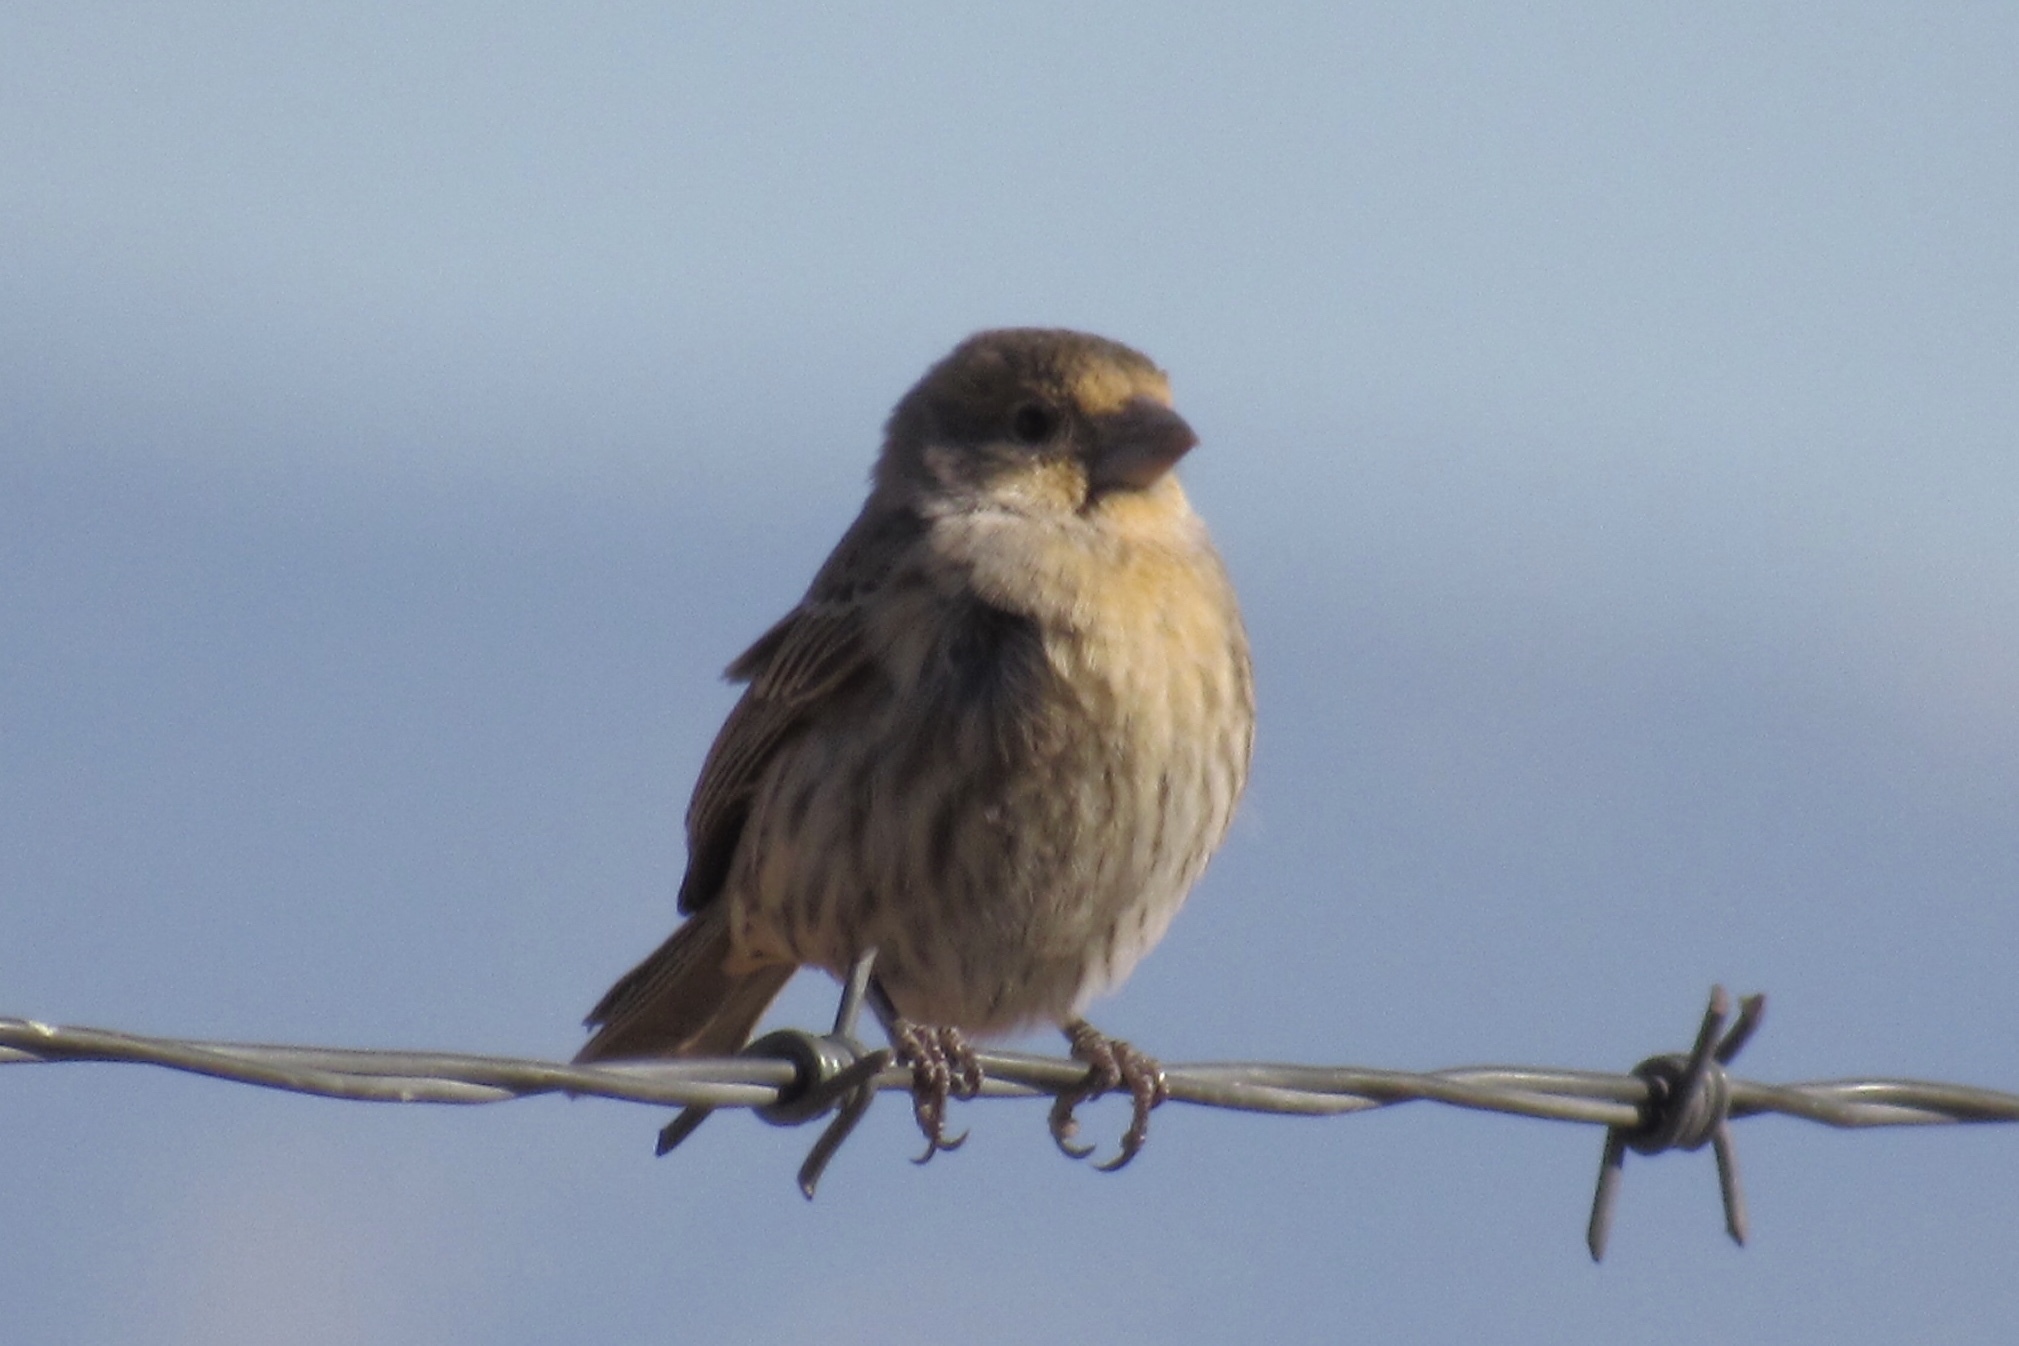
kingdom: Animalia
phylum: Chordata
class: Aves
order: Passeriformes
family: Fringillidae
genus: Haemorhous
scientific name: Haemorhous mexicanus
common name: House finch
